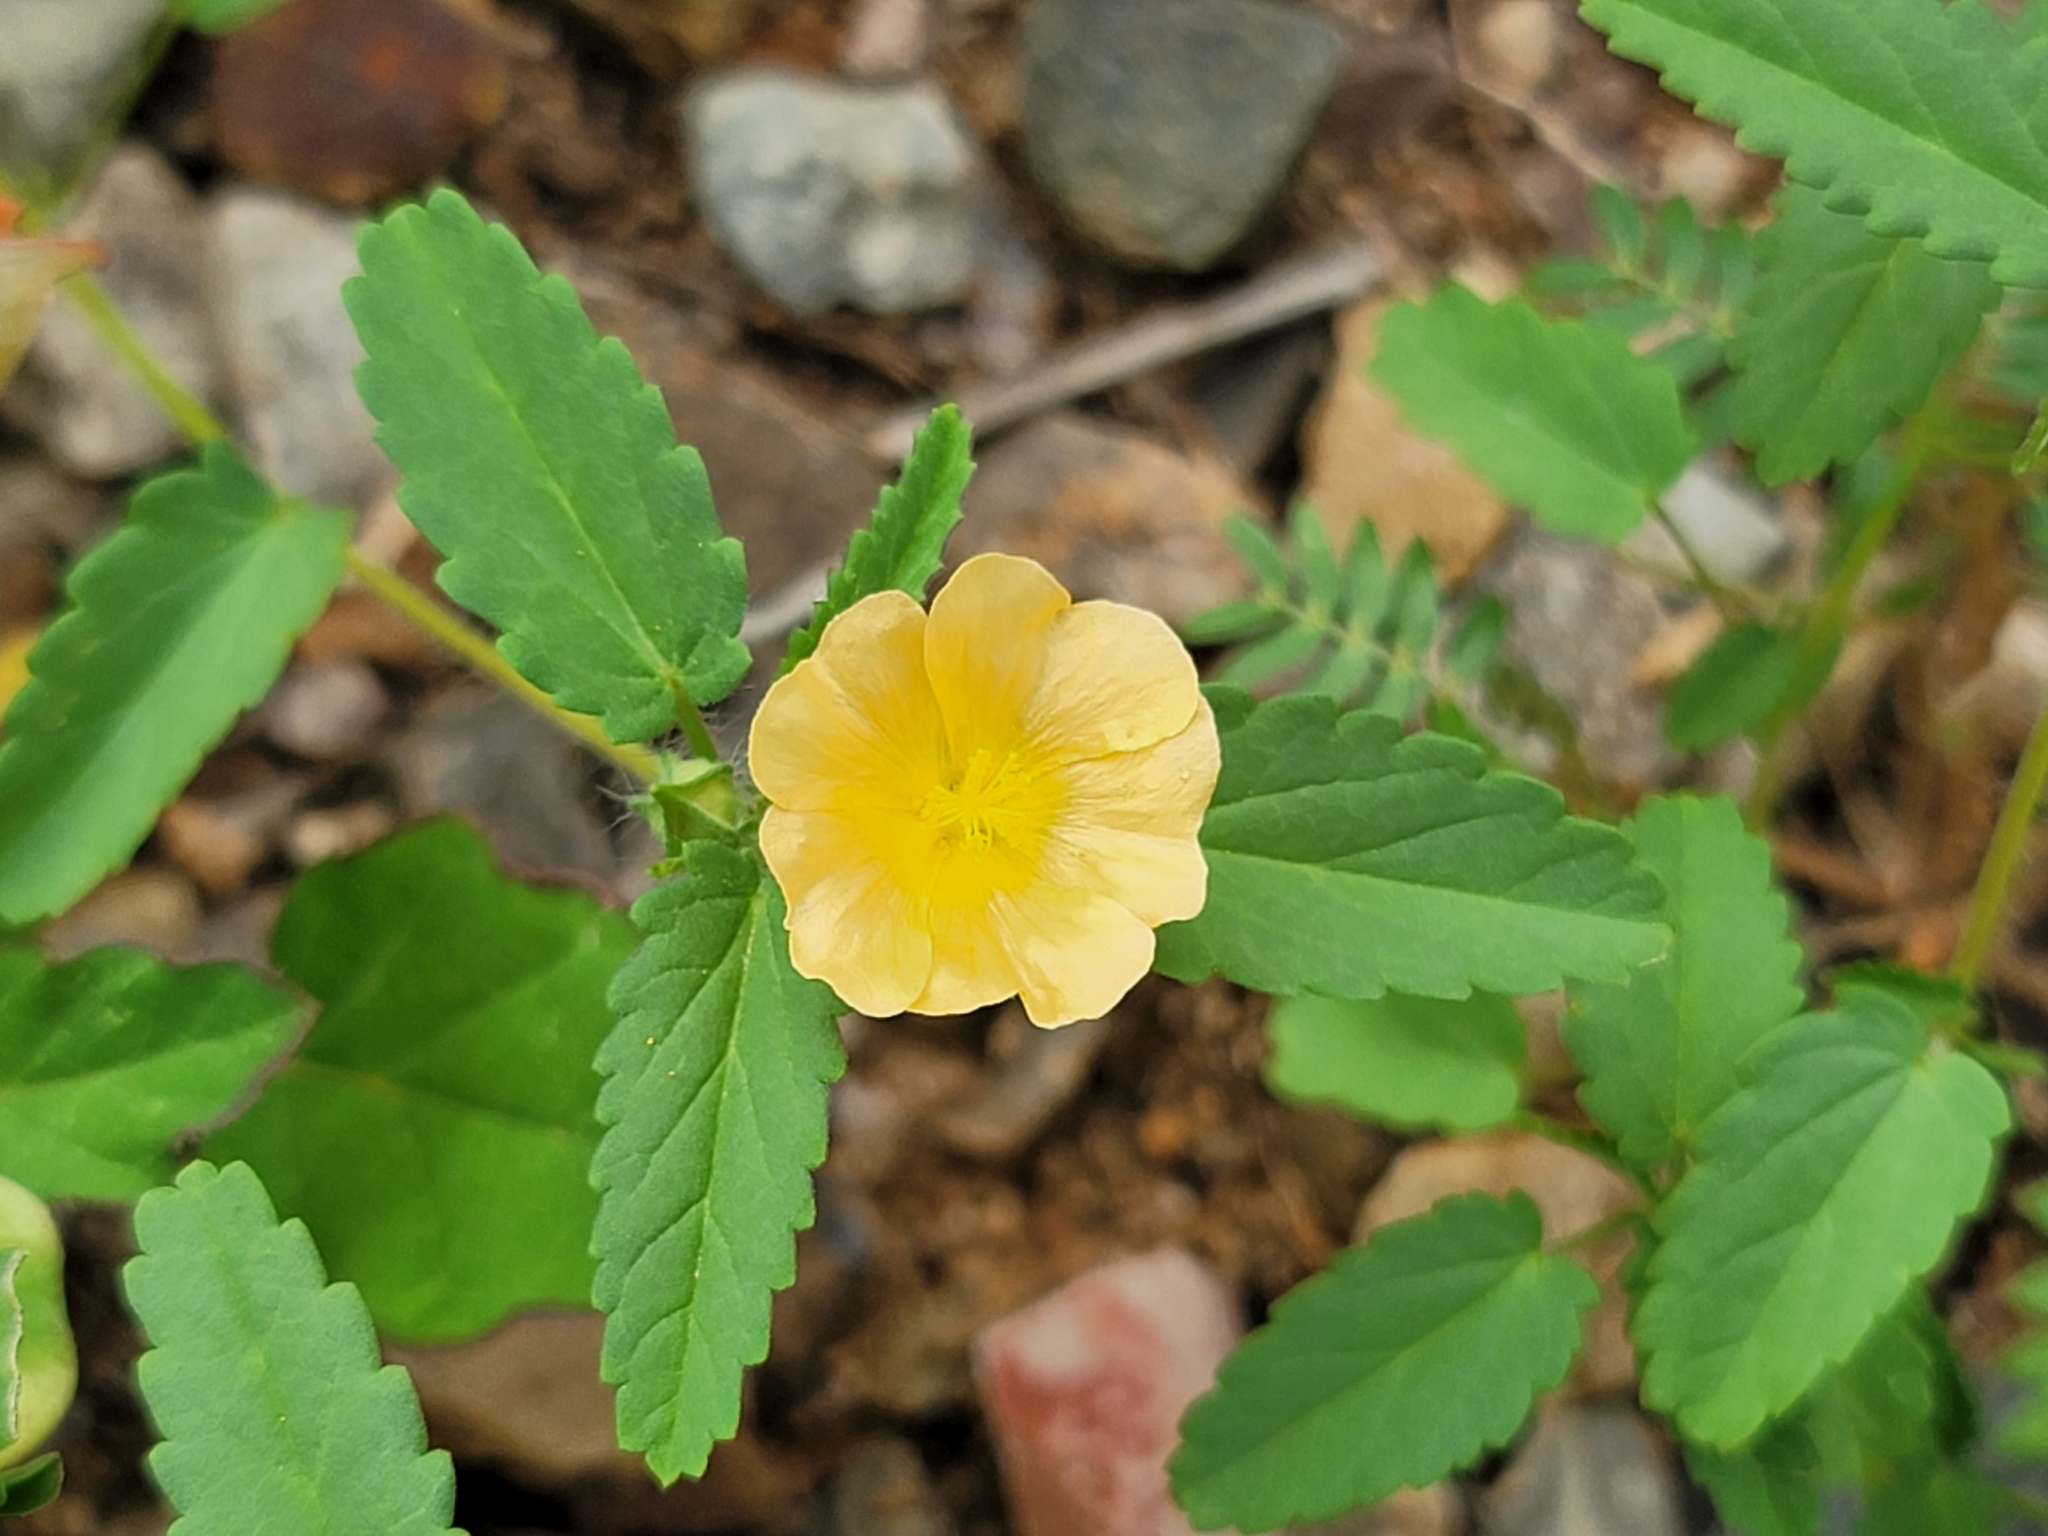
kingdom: Plantae
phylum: Tracheophyta
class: Magnoliopsida
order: Malvales
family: Malvaceae
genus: Sida
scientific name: Sida abutilifolia
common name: Spreading fanpetals
